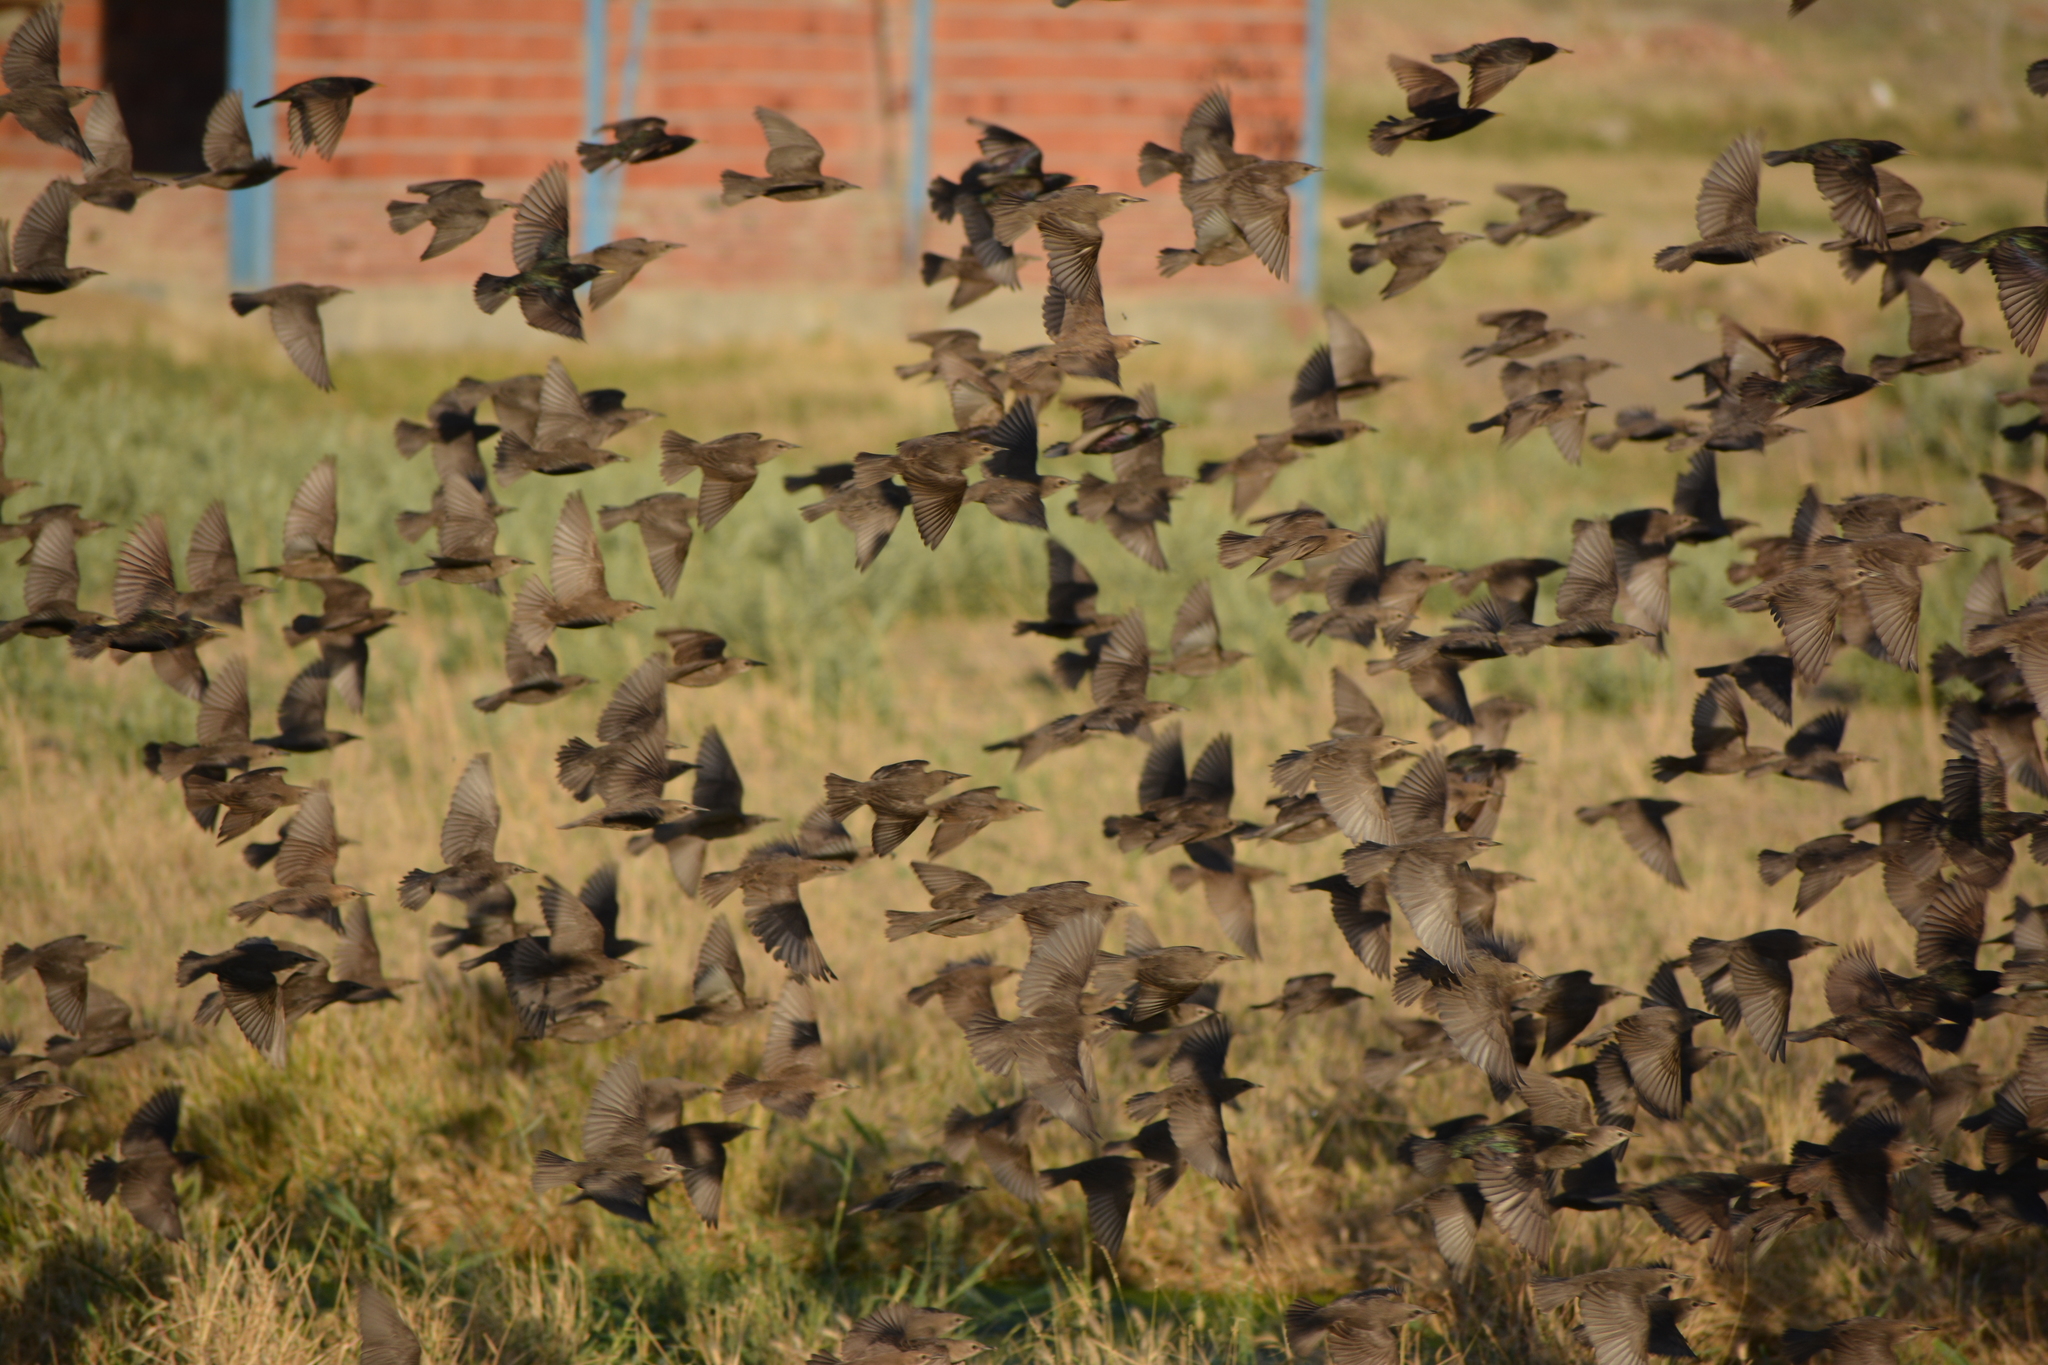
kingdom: Animalia
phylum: Chordata
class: Aves
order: Passeriformes
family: Sturnidae
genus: Sturnus
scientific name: Sturnus vulgaris
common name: Common starling
